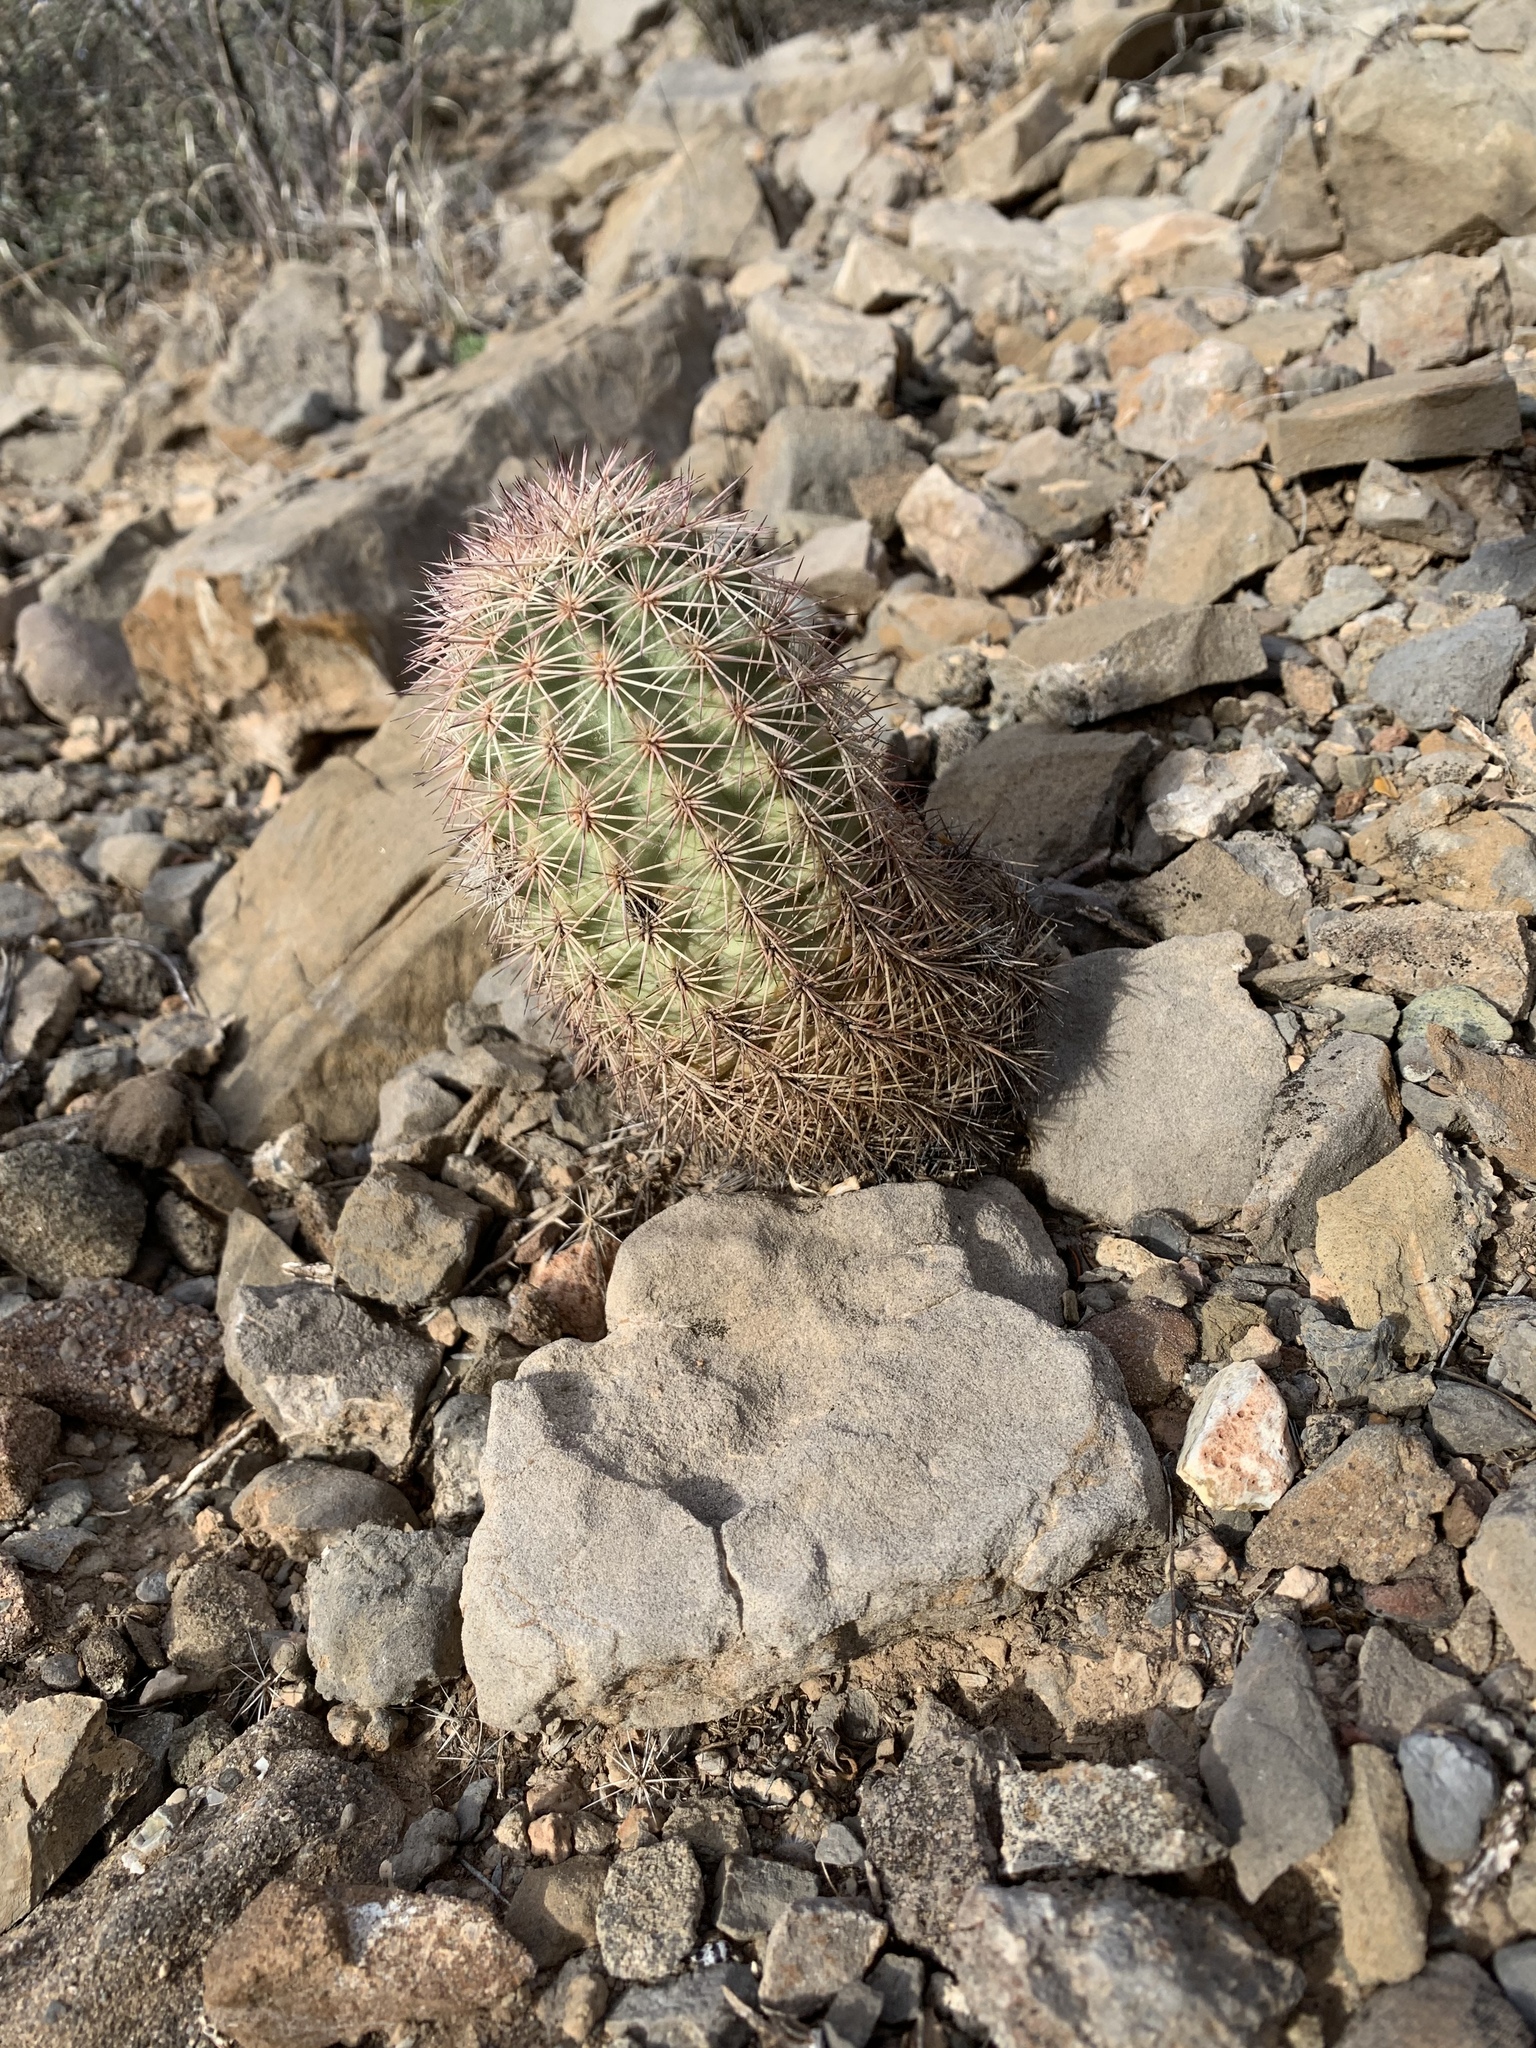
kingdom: Plantae
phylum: Tracheophyta
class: Magnoliopsida
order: Caryophyllales
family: Cactaceae
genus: Echinocereus
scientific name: Echinocereus dasyacanthus
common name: Spiny hedgehog cactus
